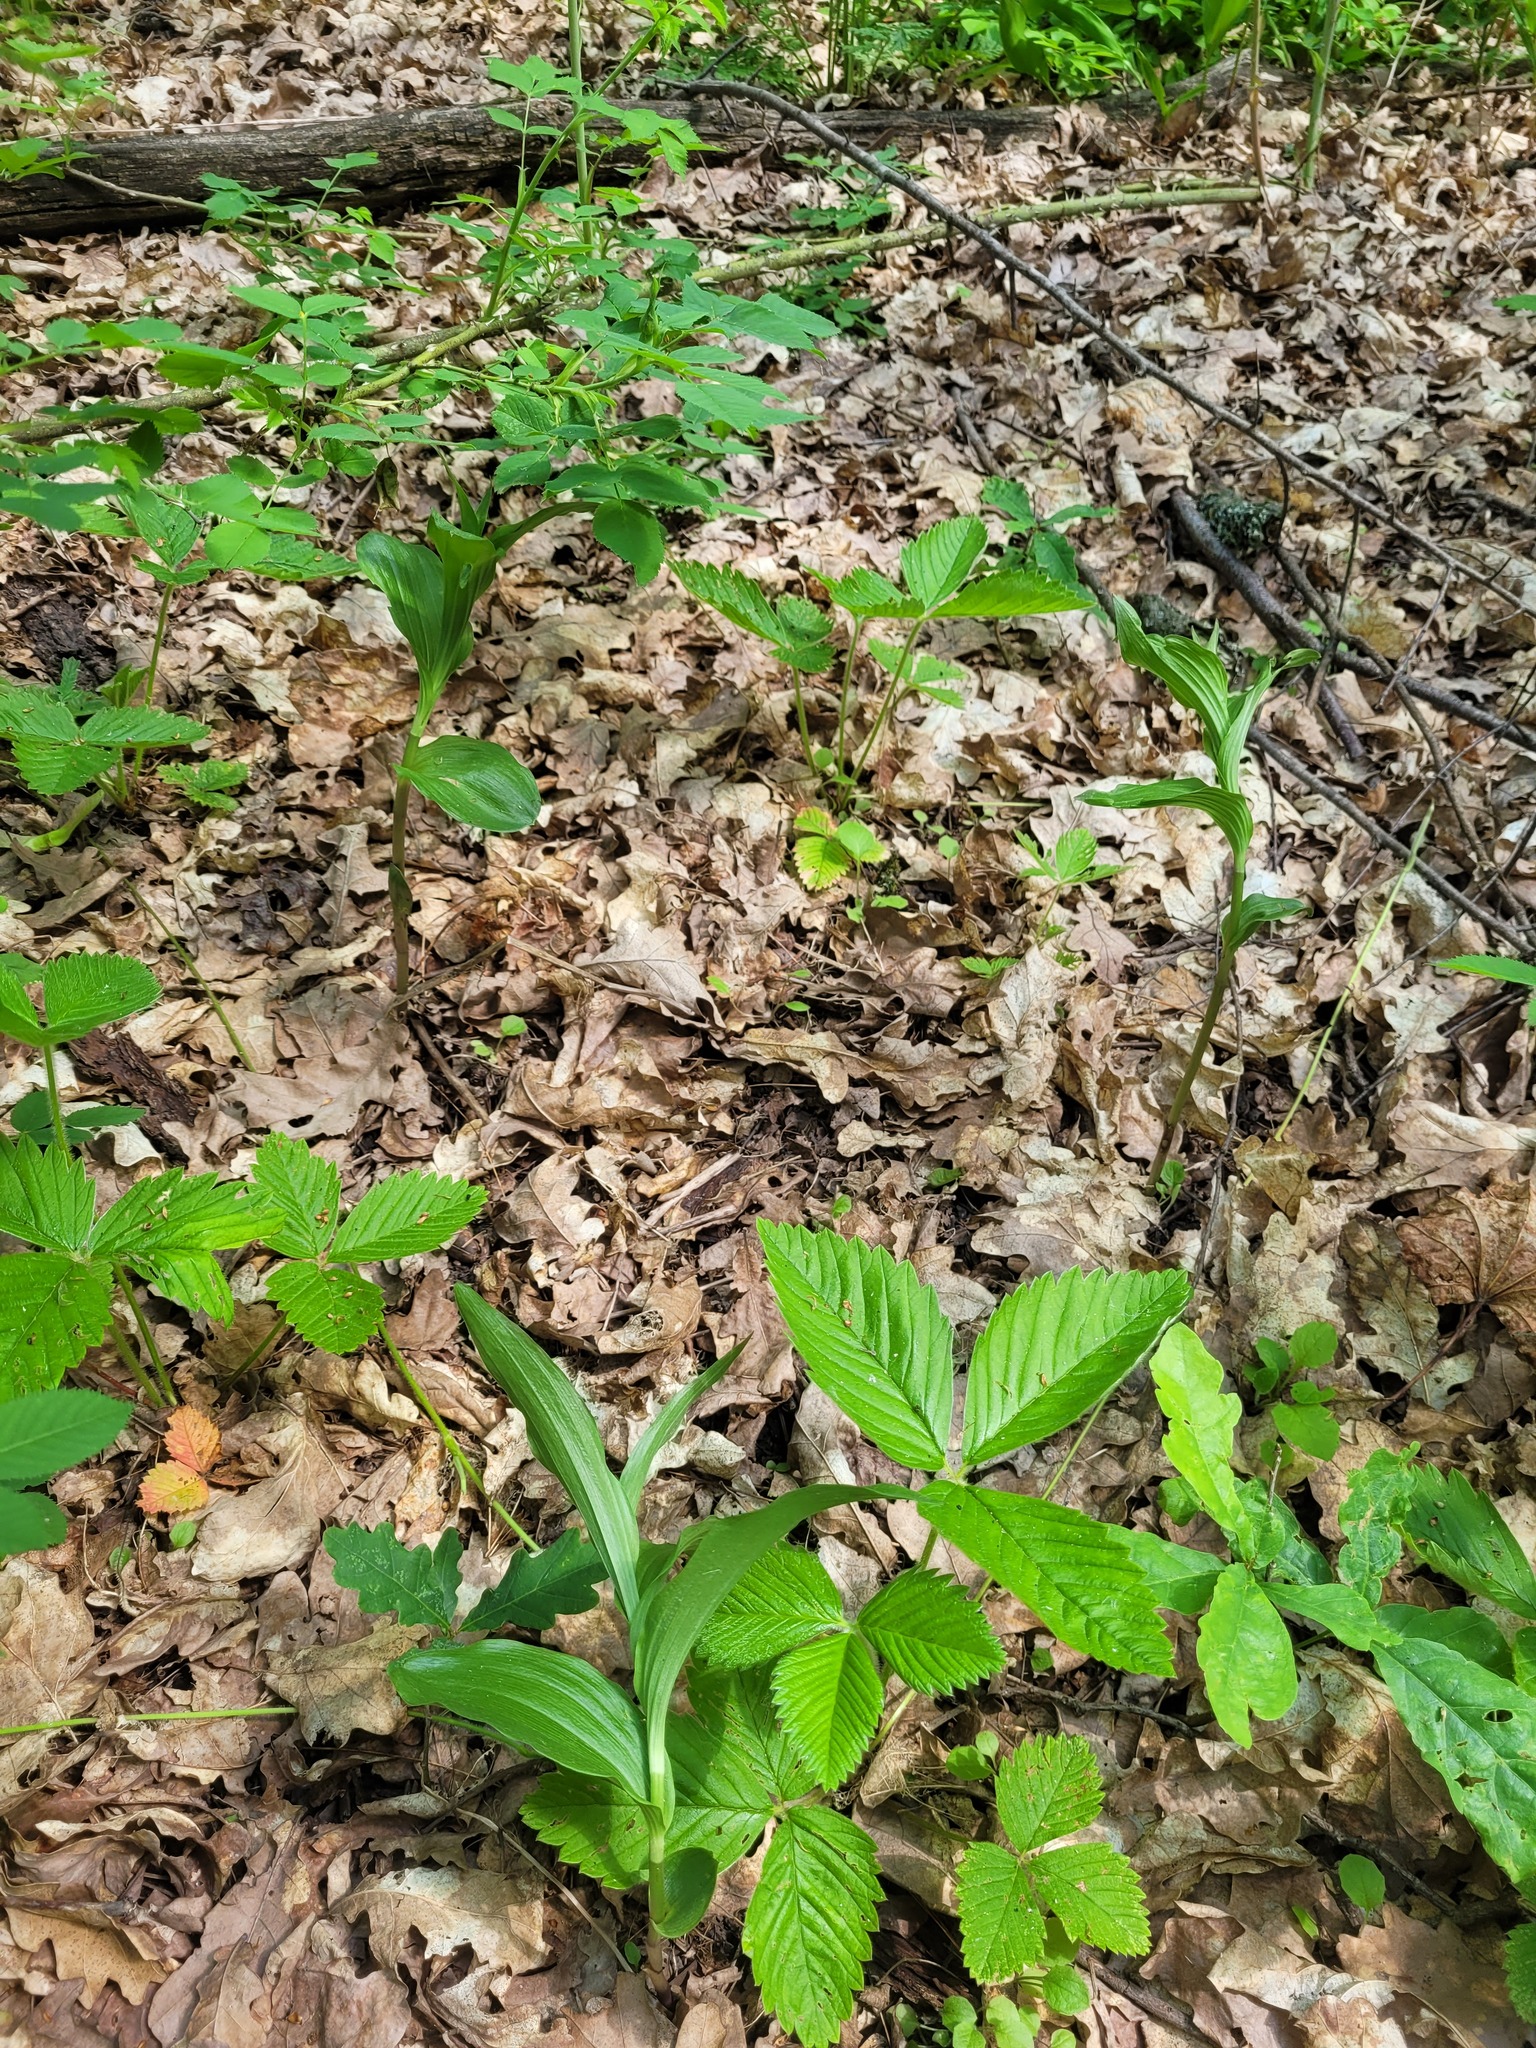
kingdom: Plantae
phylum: Tracheophyta
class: Liliopsida
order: Asparagales
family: Orchidaceae
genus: Epipactis
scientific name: Epipactis helleborine
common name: Broad-leaved helleborine
